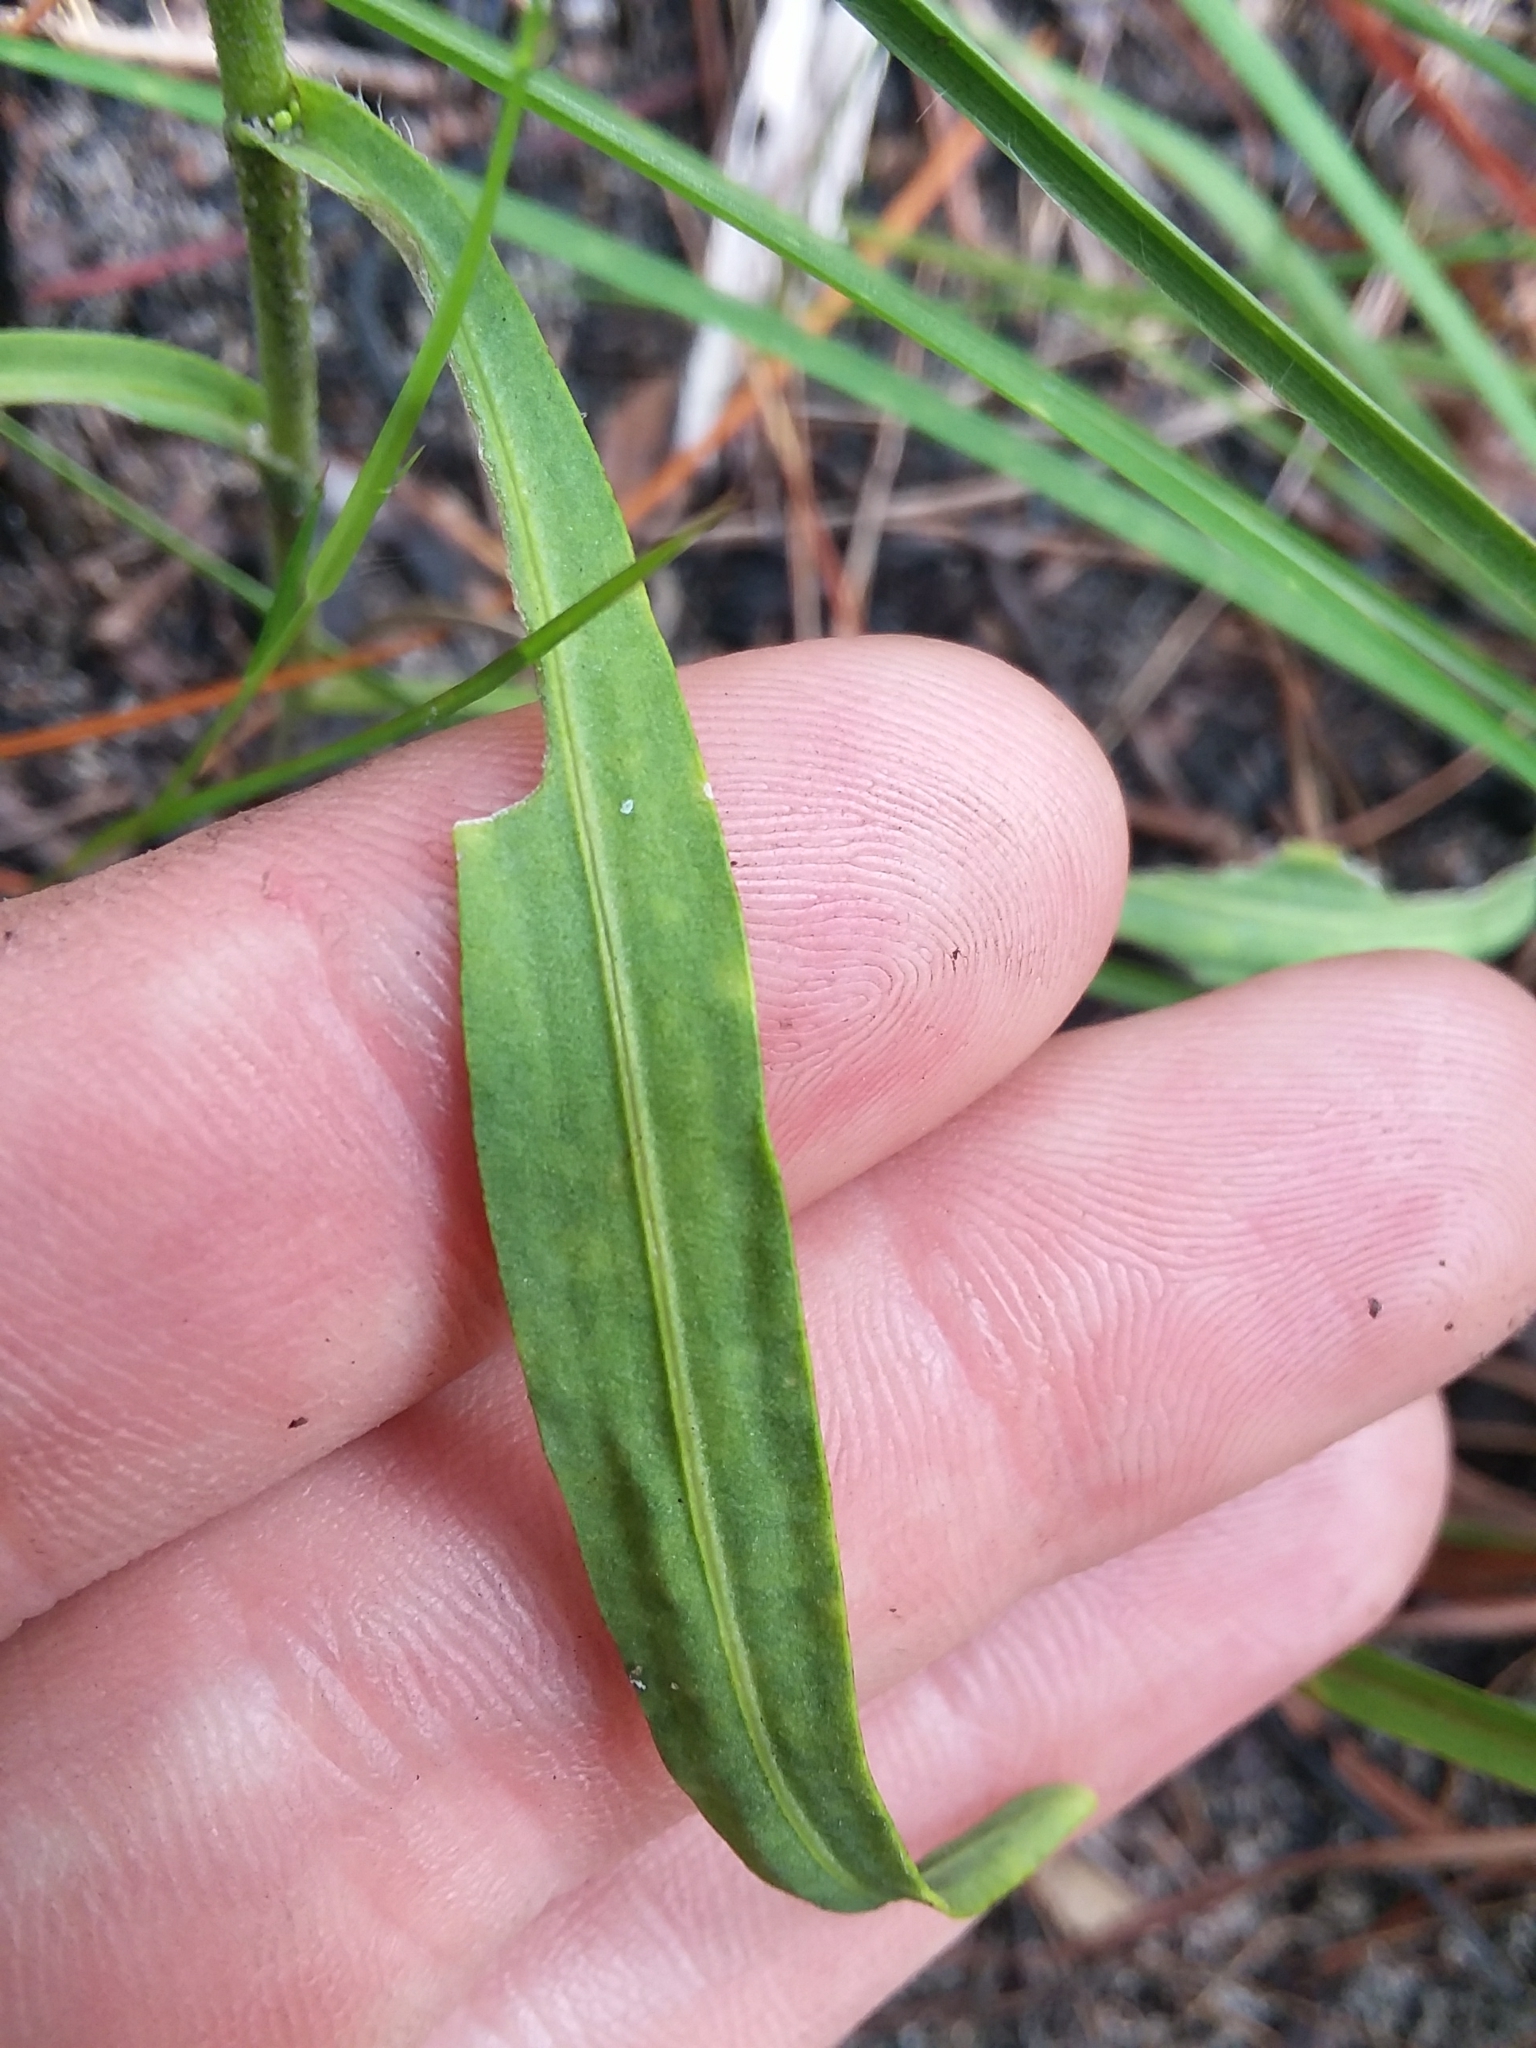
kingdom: Plantae
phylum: Tracheophyta
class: Magnoliopsida
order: Asterales
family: Asteraceae
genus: Liatris
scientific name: Liatris gracilis
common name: Slender gayfeather
